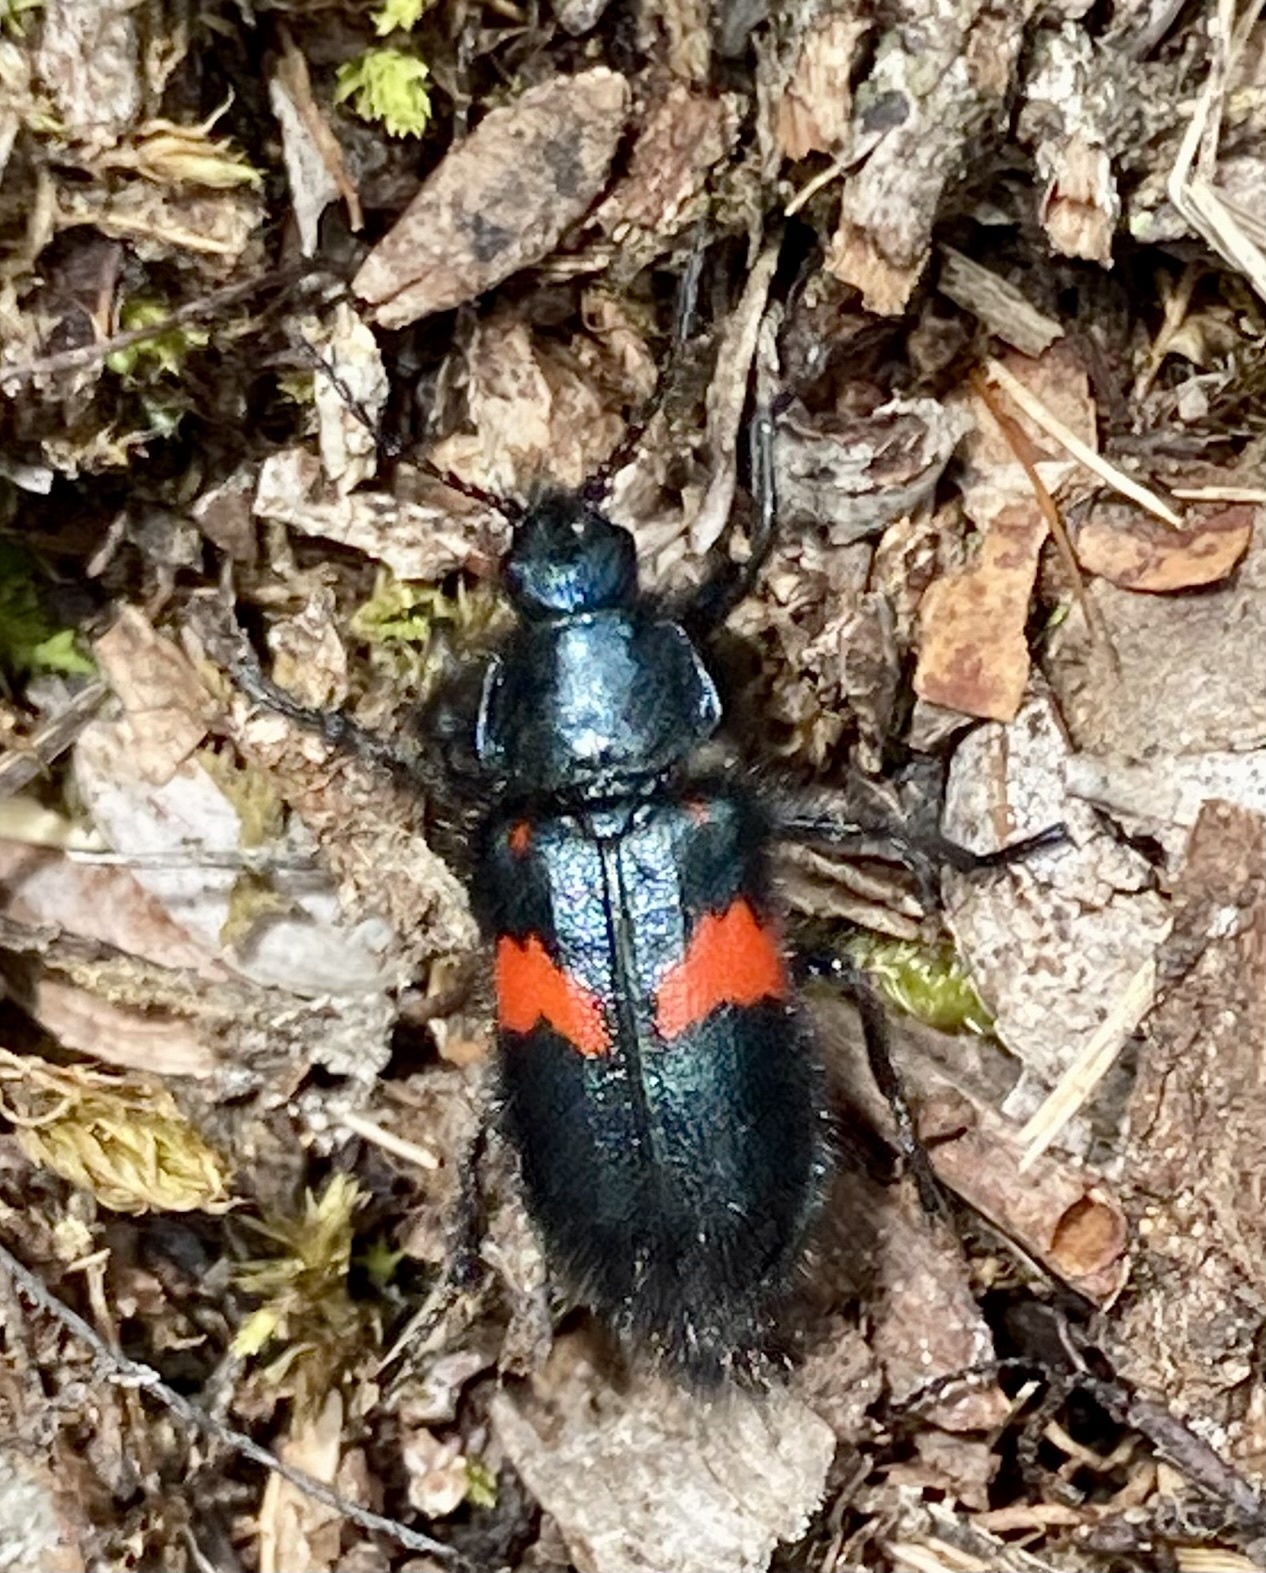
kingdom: Animalia
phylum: Arthropoda
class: Insecta
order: Coleoptera
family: Melyridae
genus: Astylus
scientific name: Astylus
